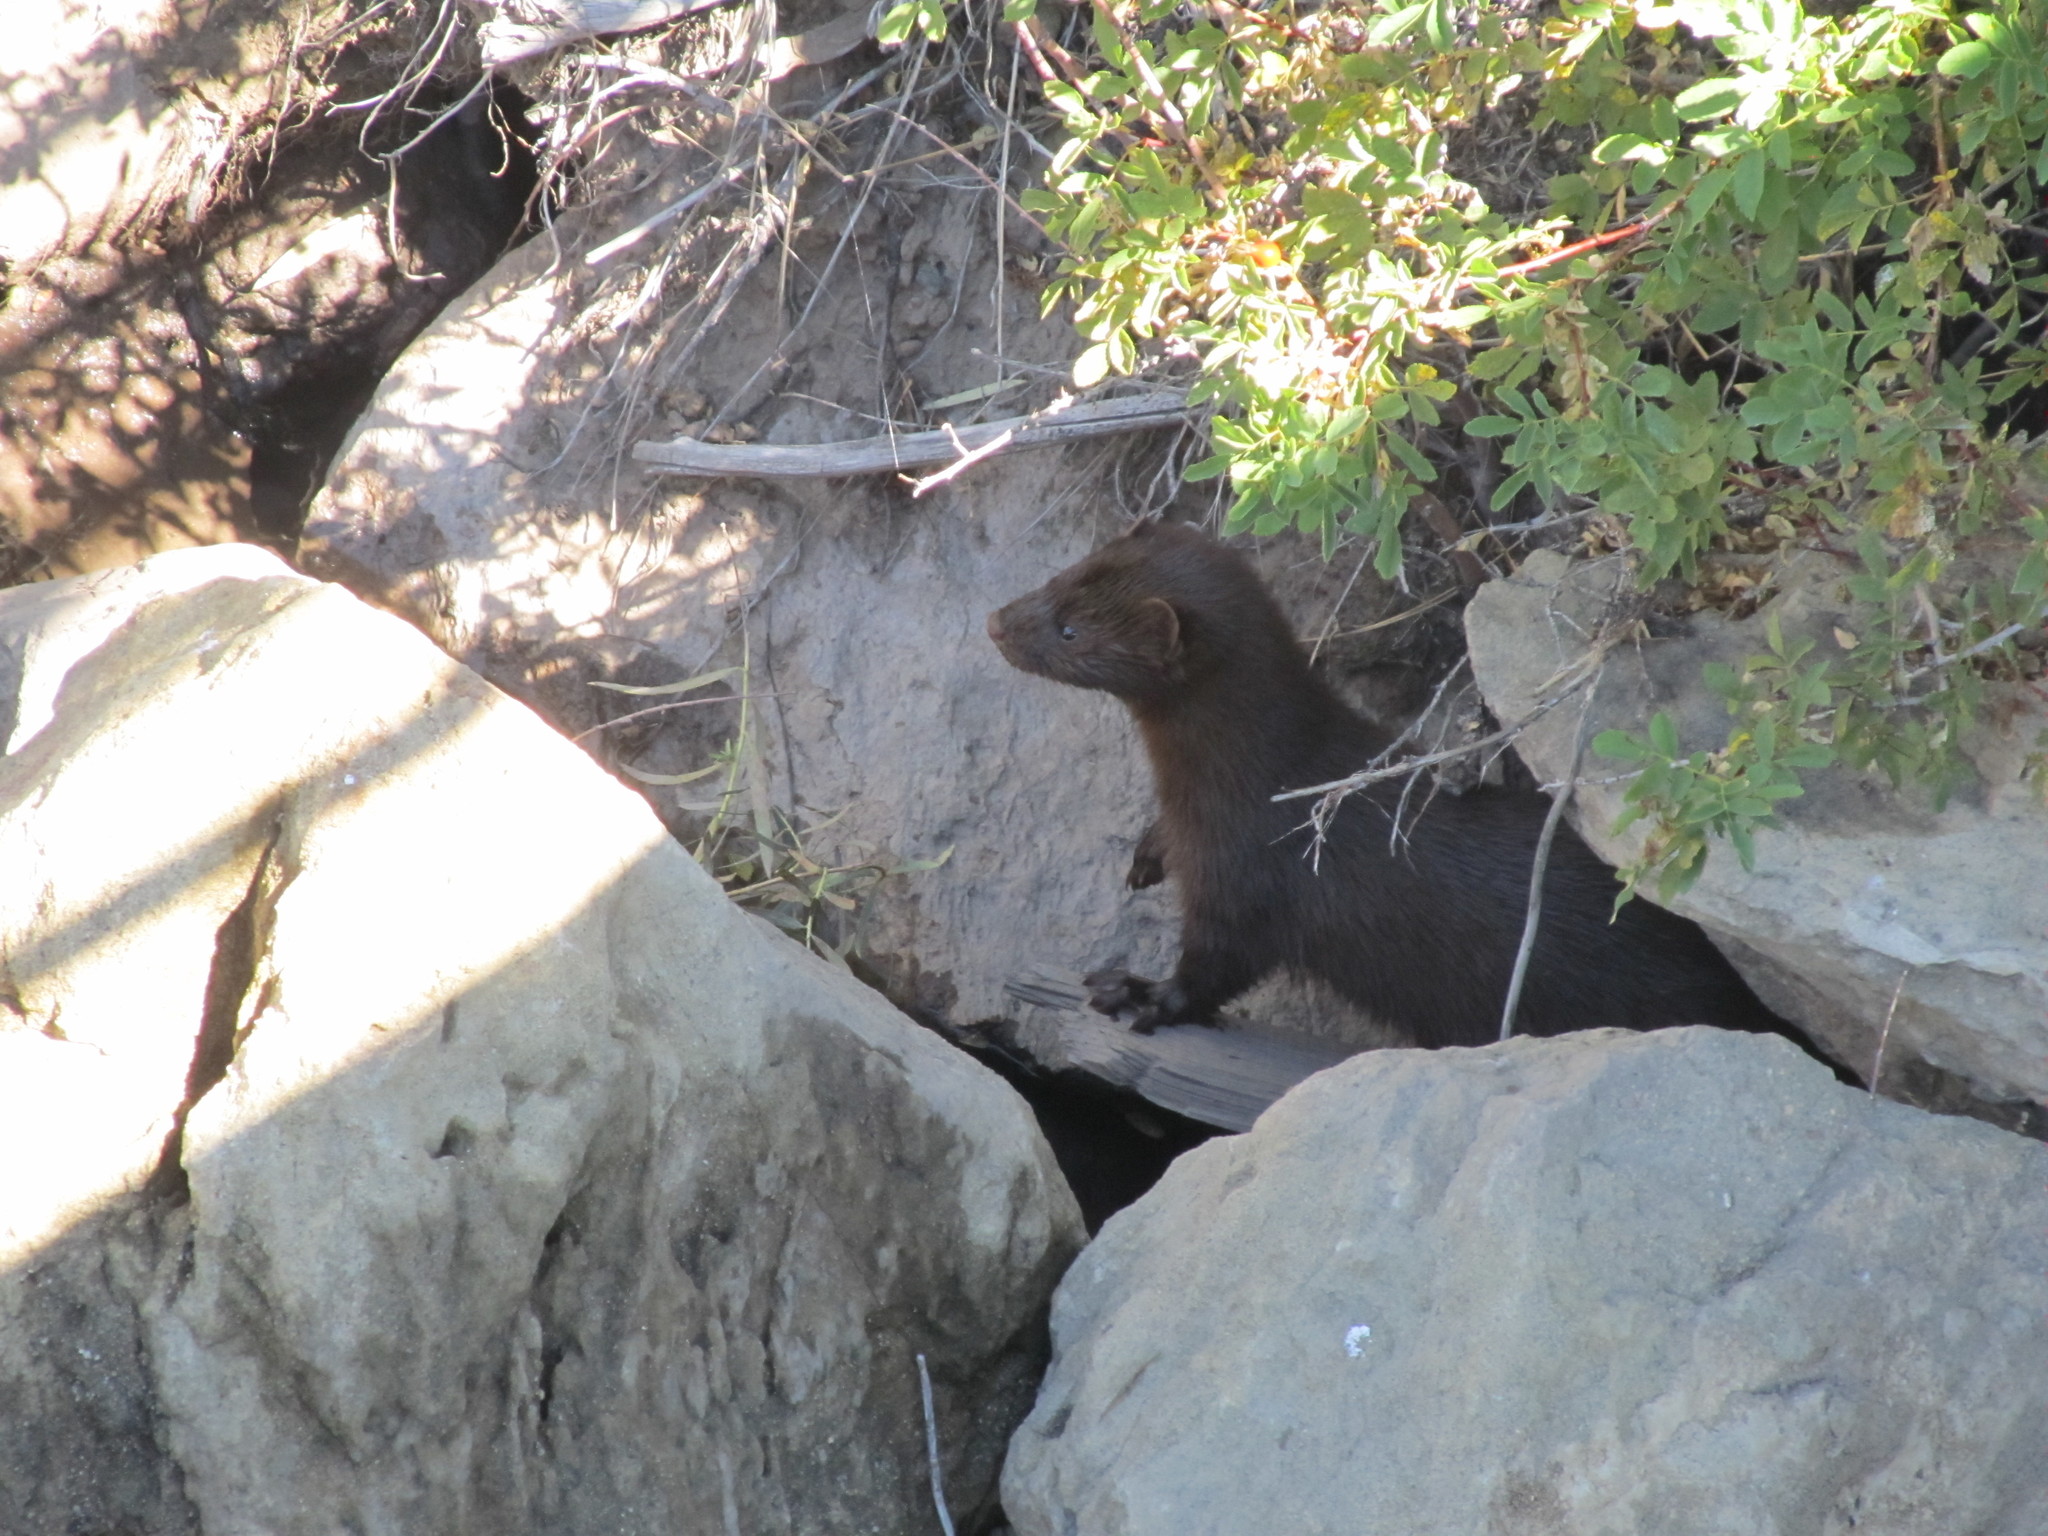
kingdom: Animalia
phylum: Chordata
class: Mammalia
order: Carnivora
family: Mustelidae
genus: Mustela
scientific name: Mustela
